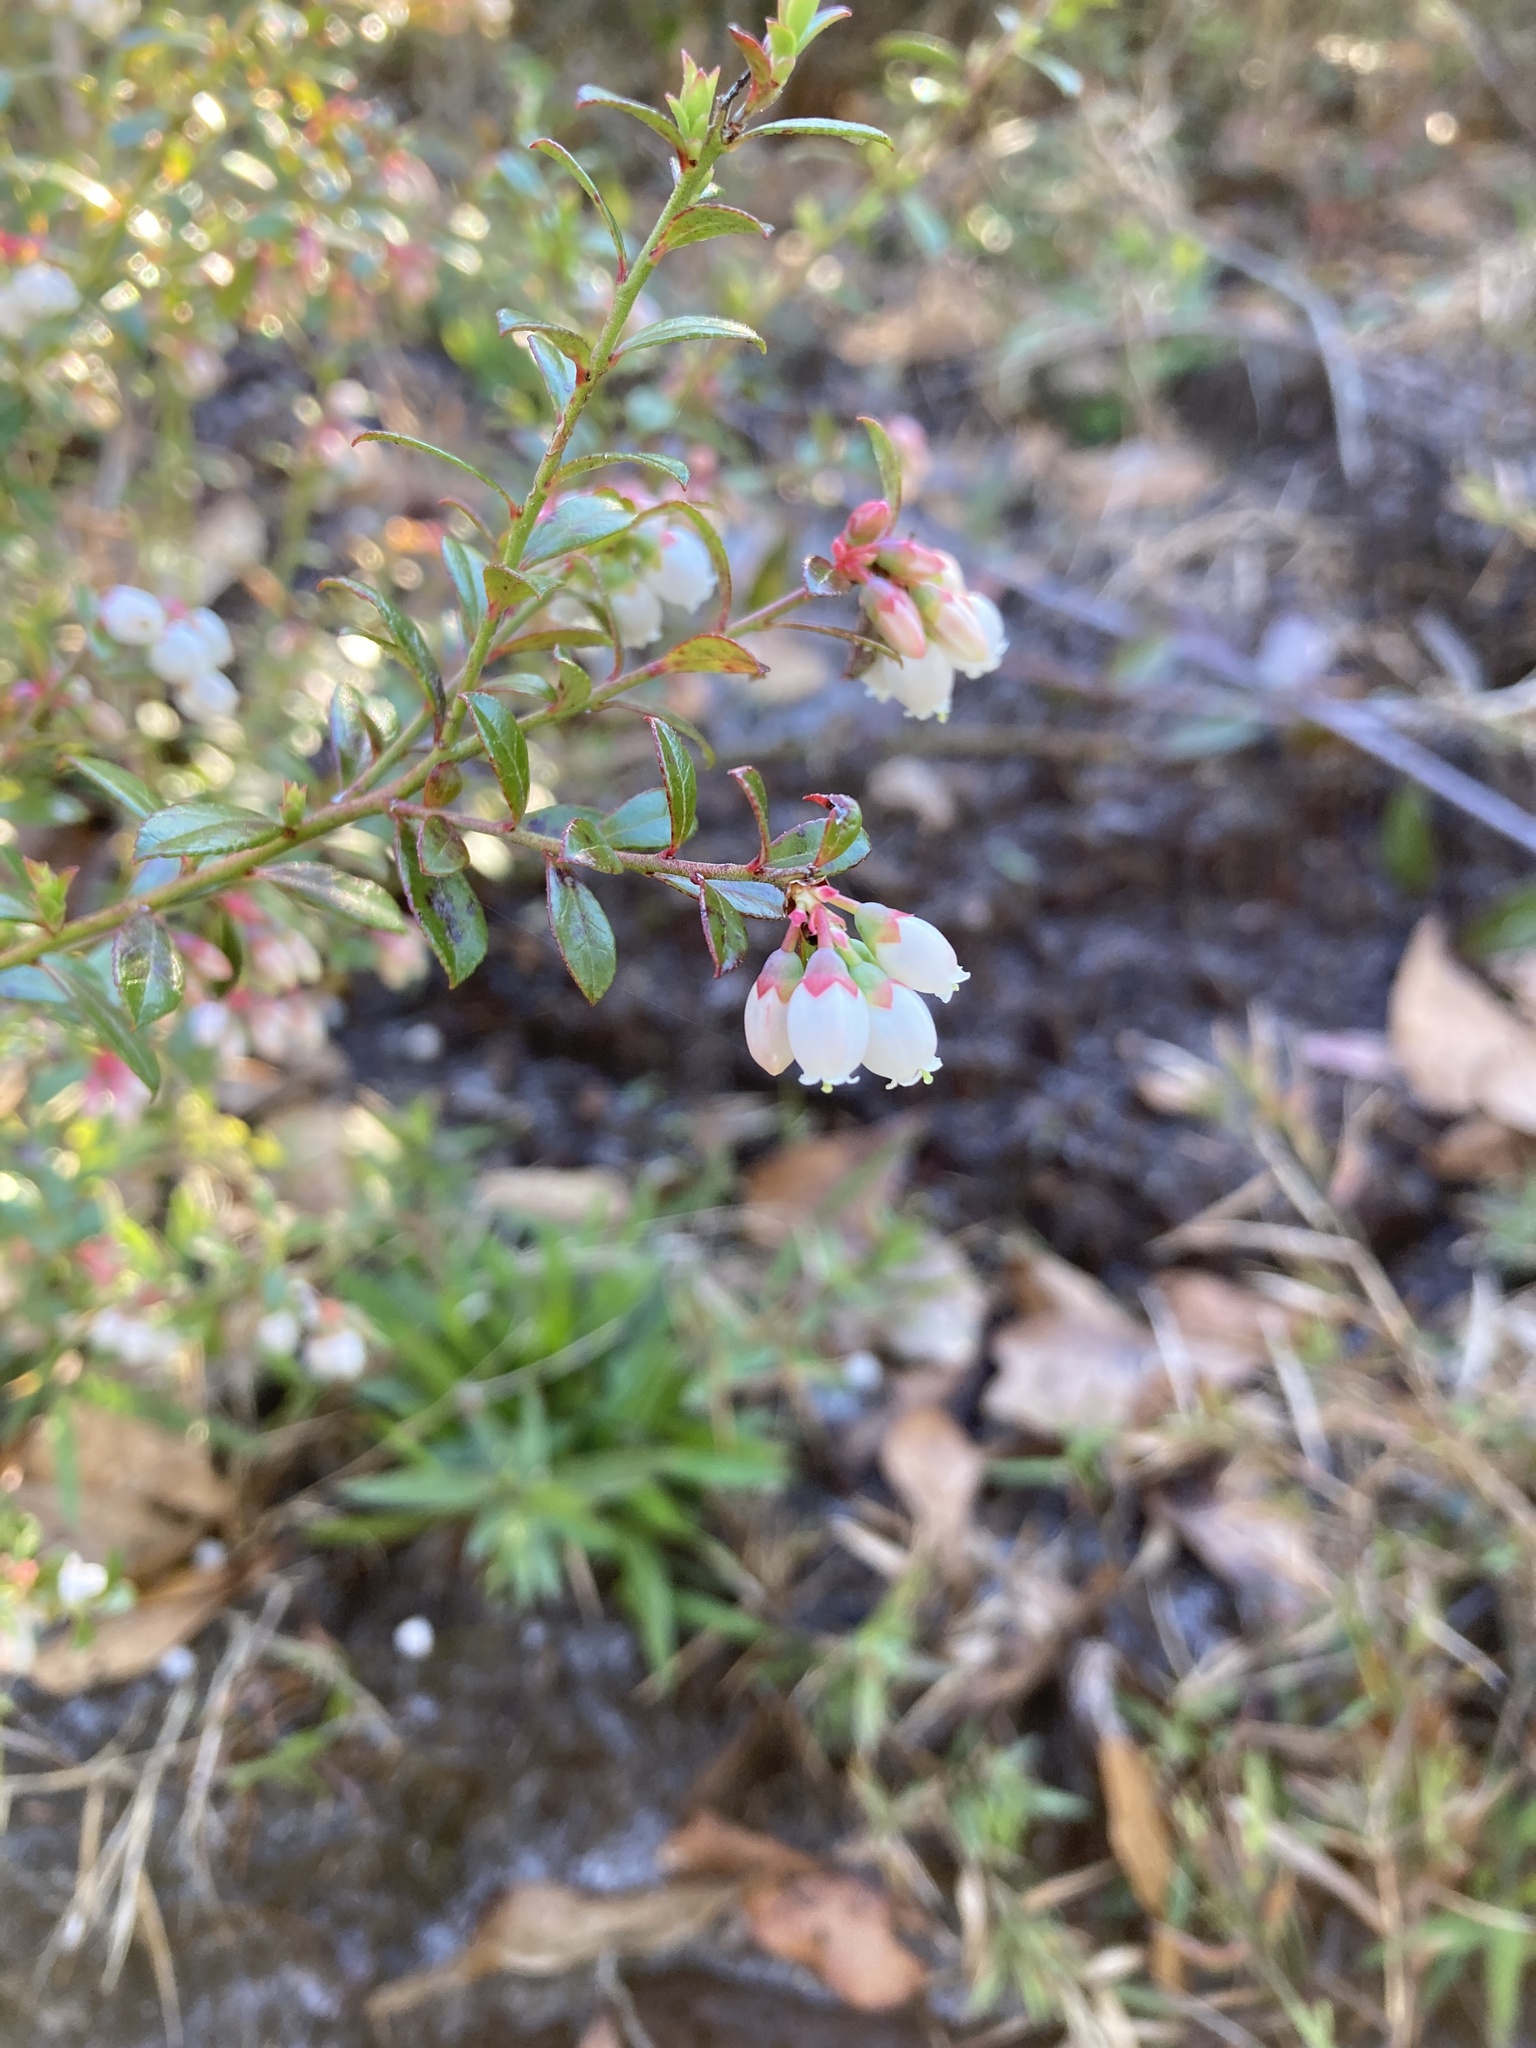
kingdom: Plantae
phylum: Tracheophyta
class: Magnoliopsida
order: Ericales
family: Ericaceae
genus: Vaccinium
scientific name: Vaccinium myrsinites
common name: Evergreen blueberry
